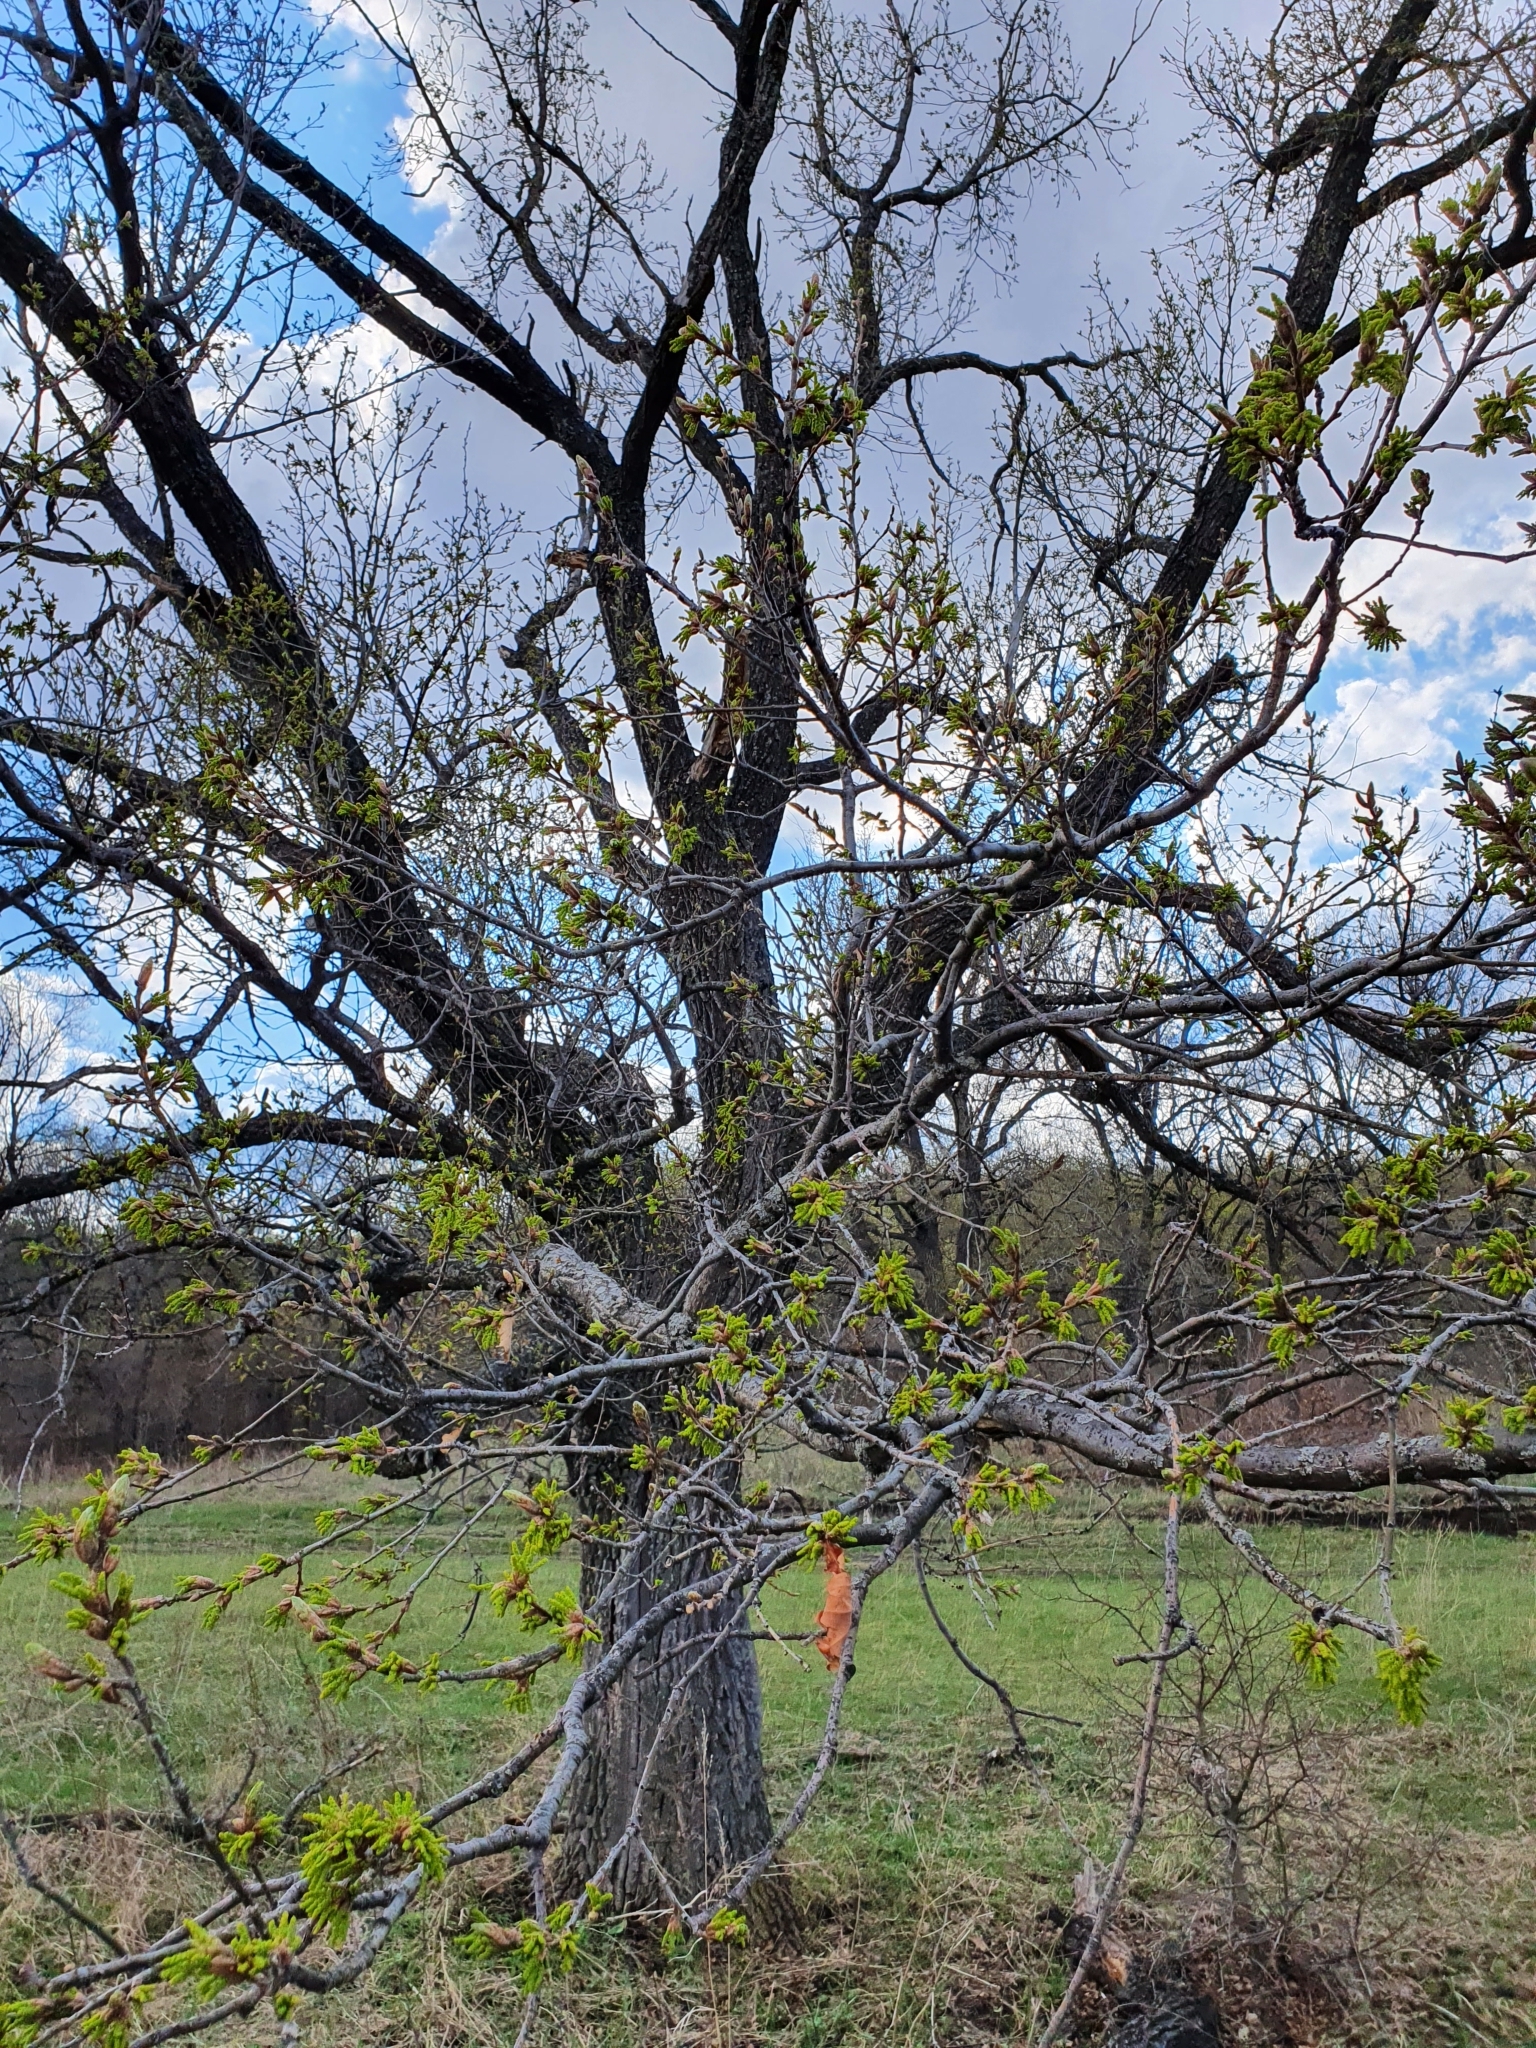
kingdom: Plantae
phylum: Tracheophyta
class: Magnoliopsida
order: Fagales
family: Fagaceae
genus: Quercus
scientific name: Quercus robur
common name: Pedunculate oak
